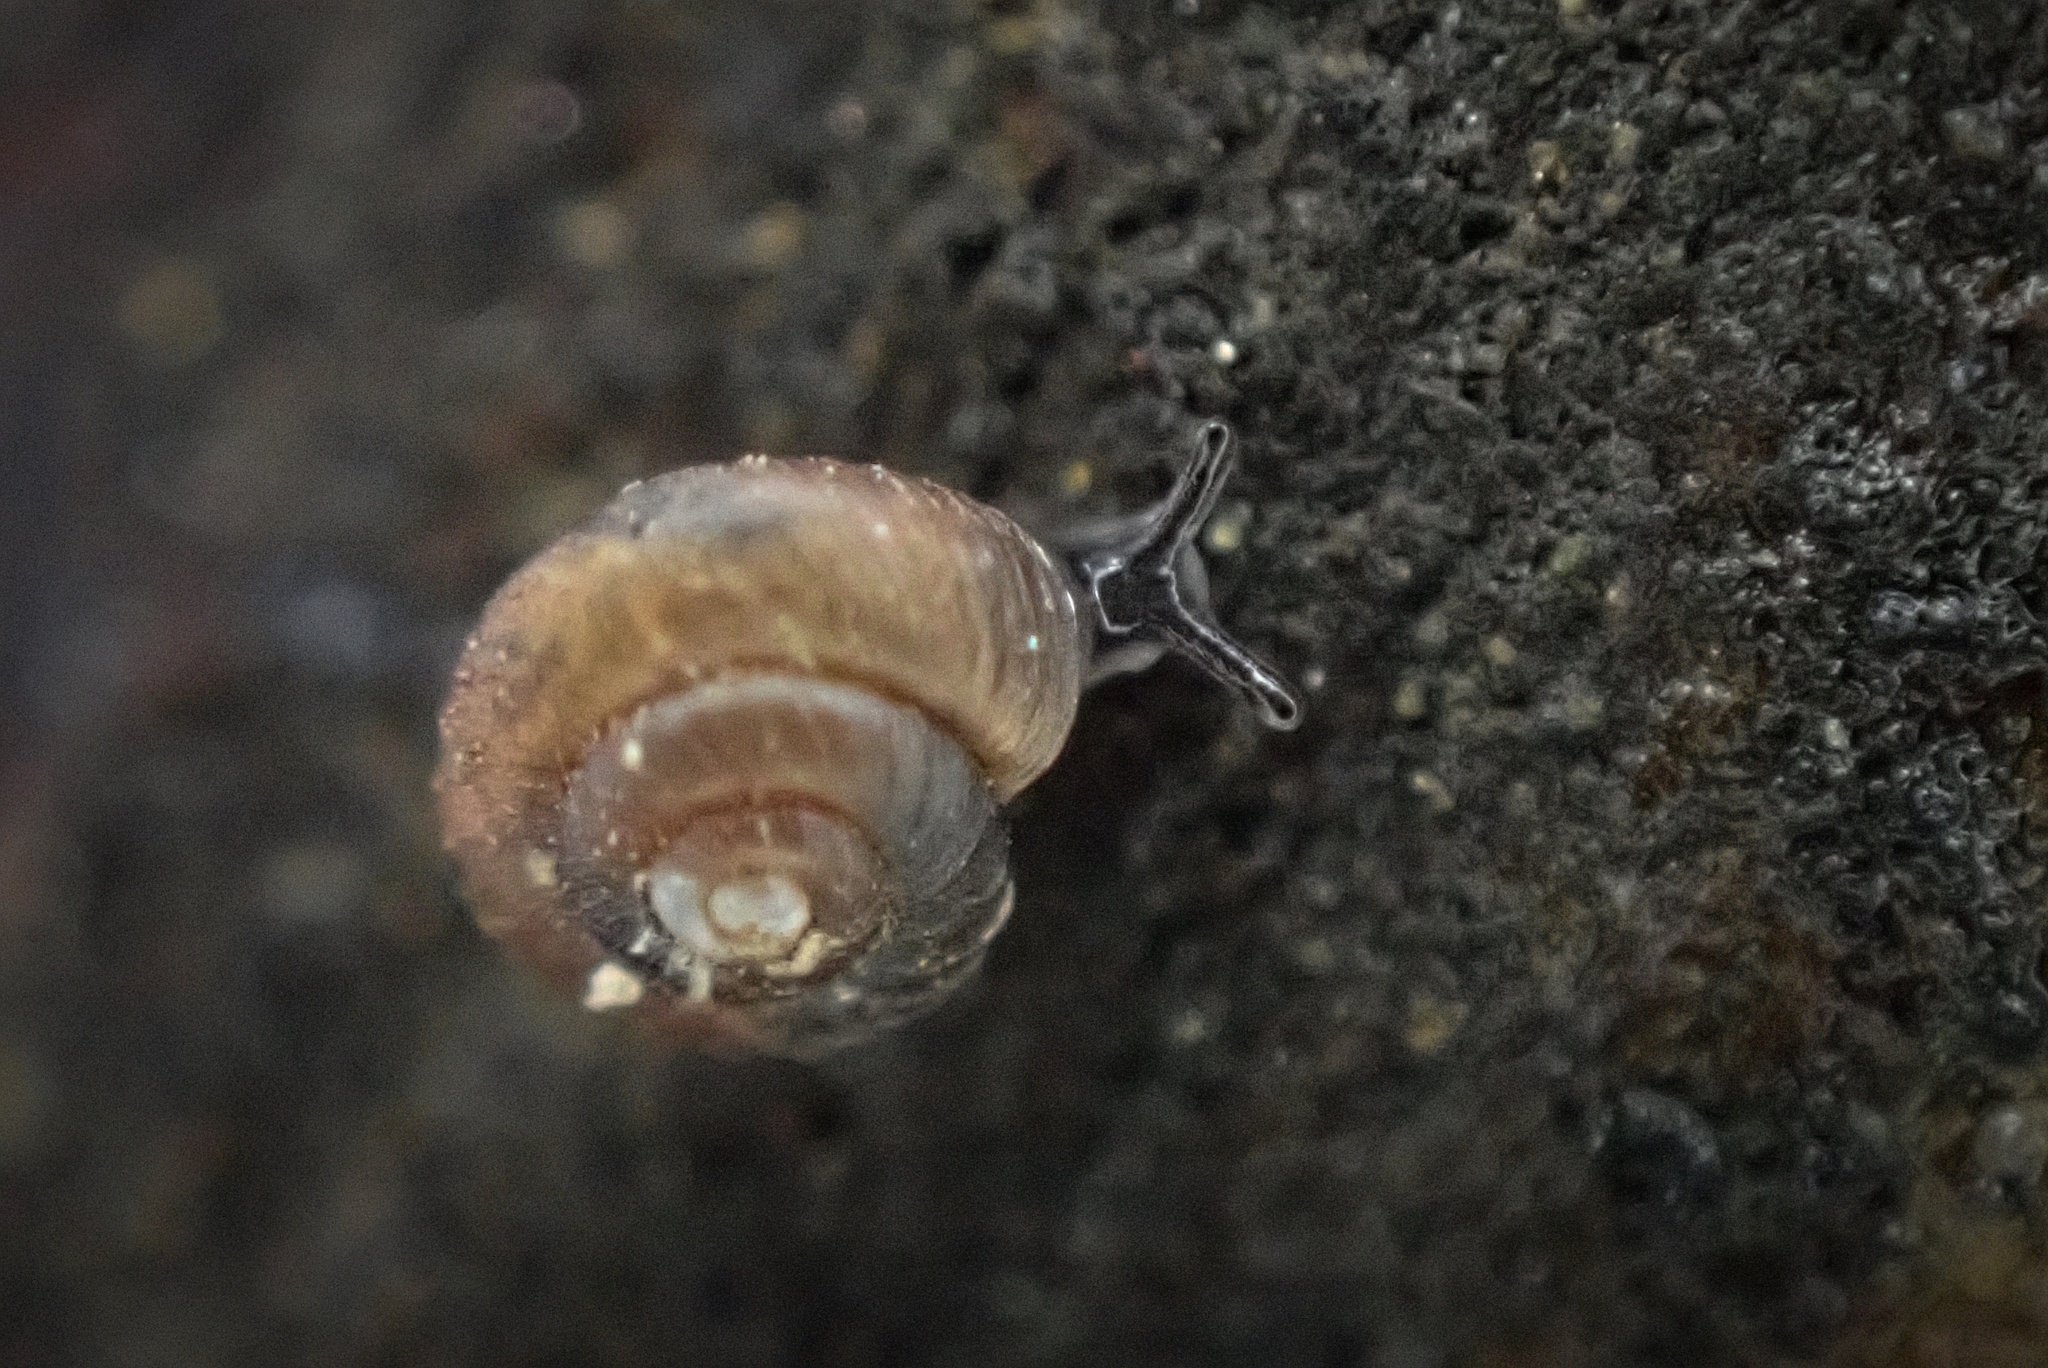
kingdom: Animalia
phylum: Mollusca
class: Gastropoda
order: Stylommatophora
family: Punctidae
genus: Paralaoma
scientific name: Paralaoma servilis
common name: Pinhead spot
